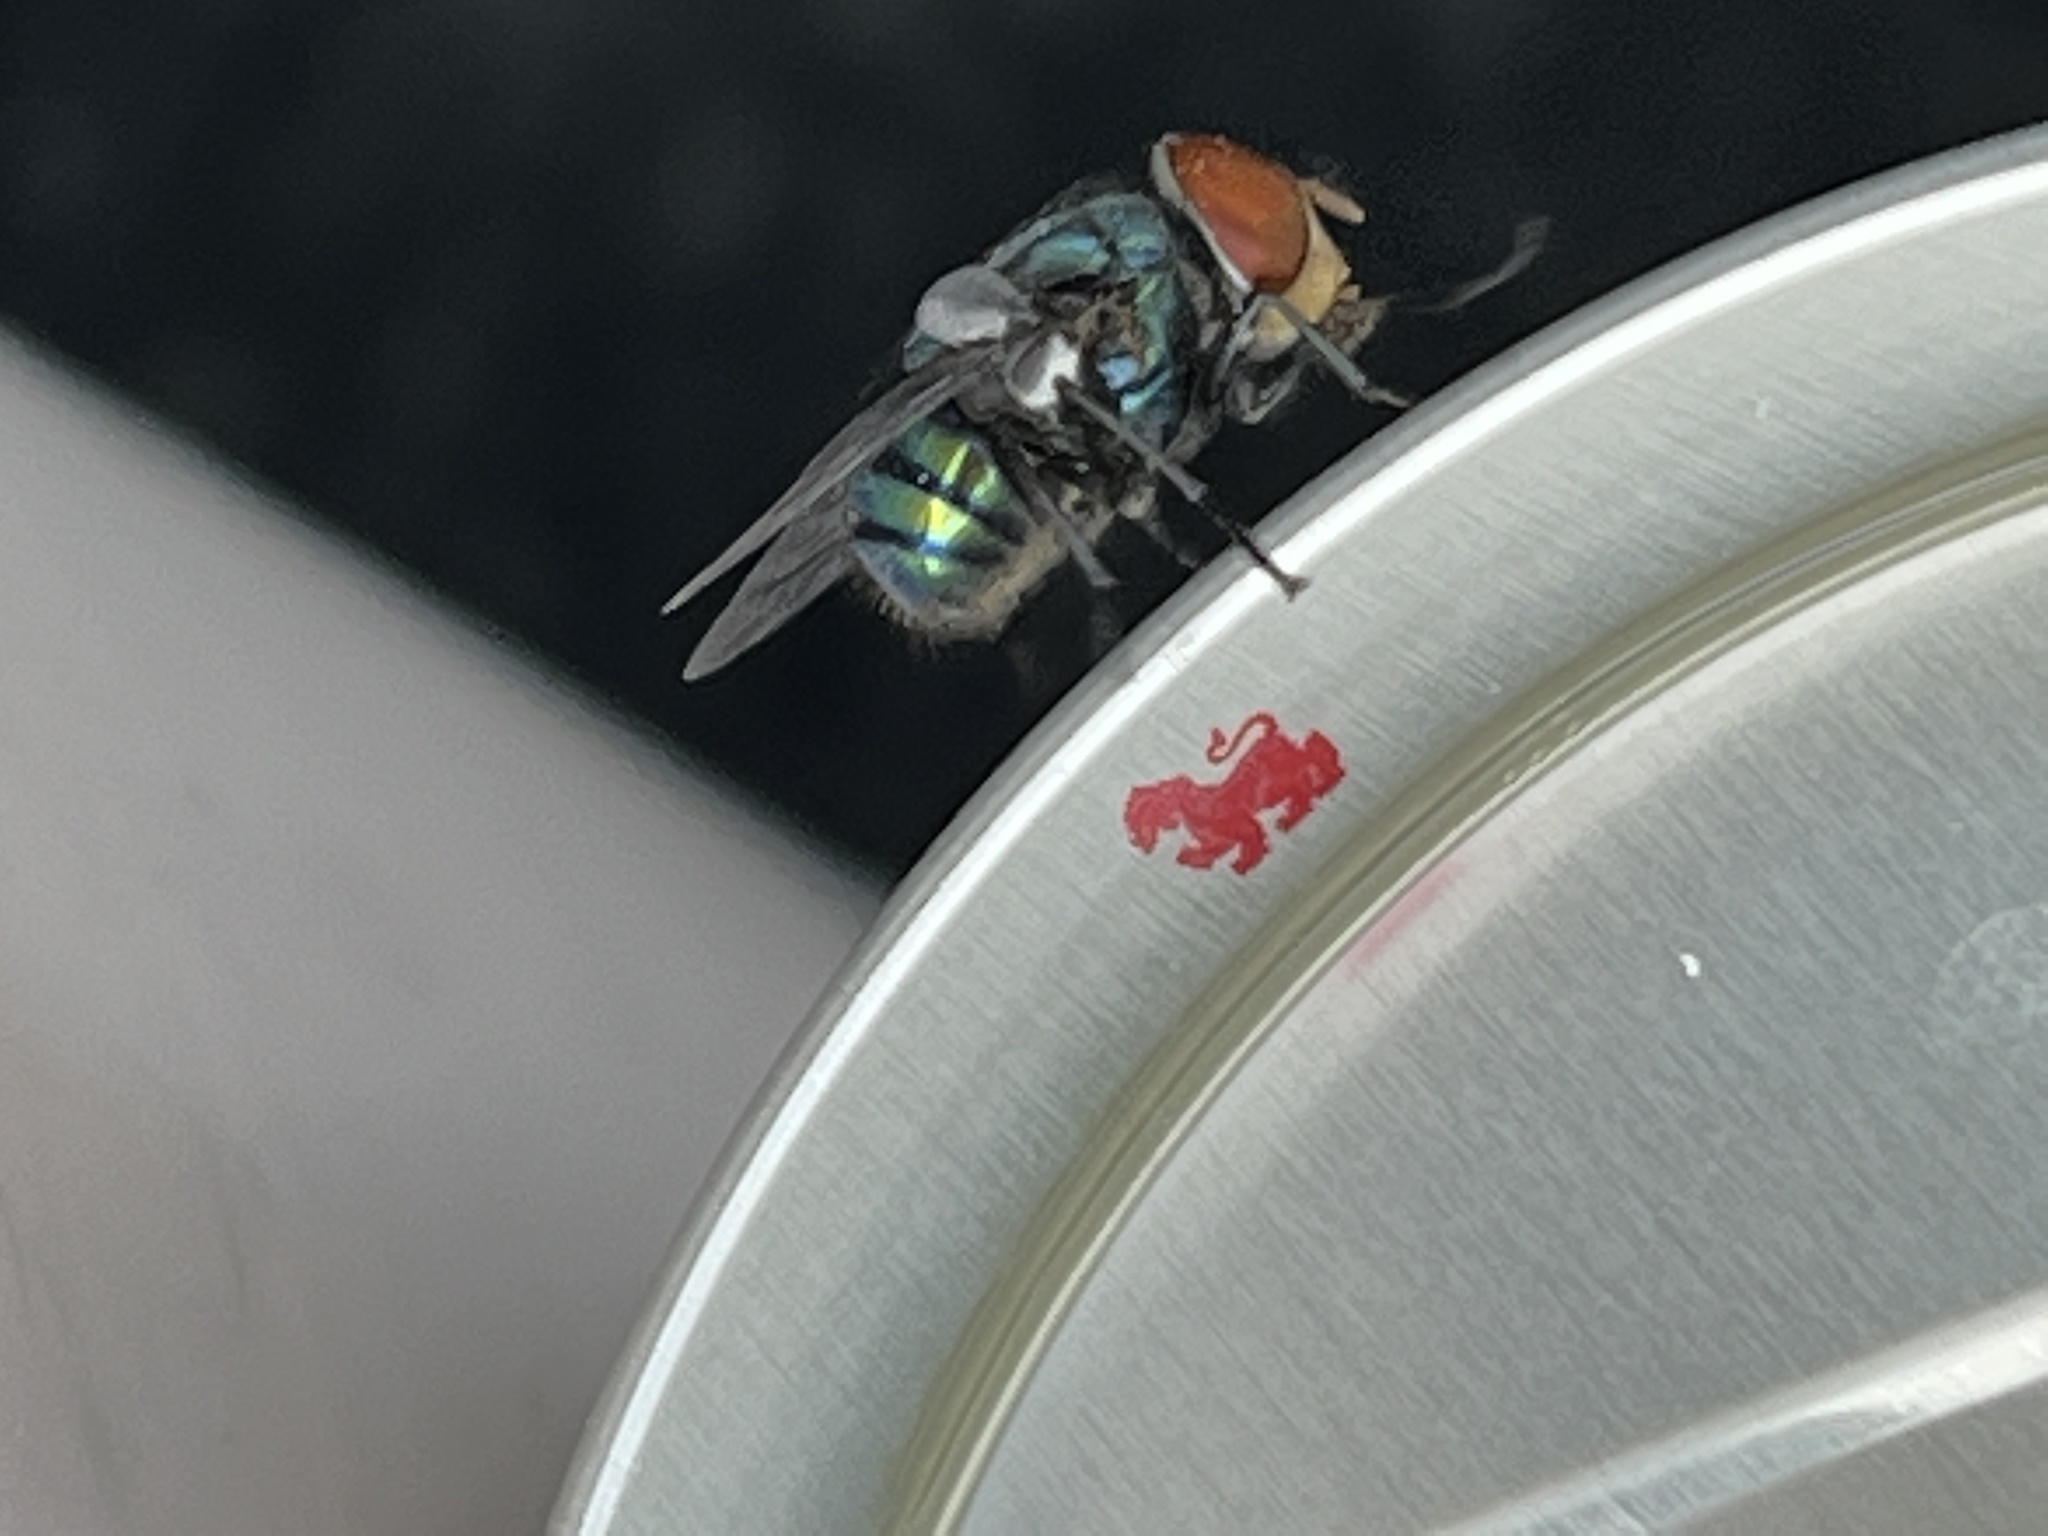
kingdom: Animalia
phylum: Arthropoda
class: Insecta
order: Diptera
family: Calliphoridae
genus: Chrysomya
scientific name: Chrysomya megacephala
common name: Blow fly
